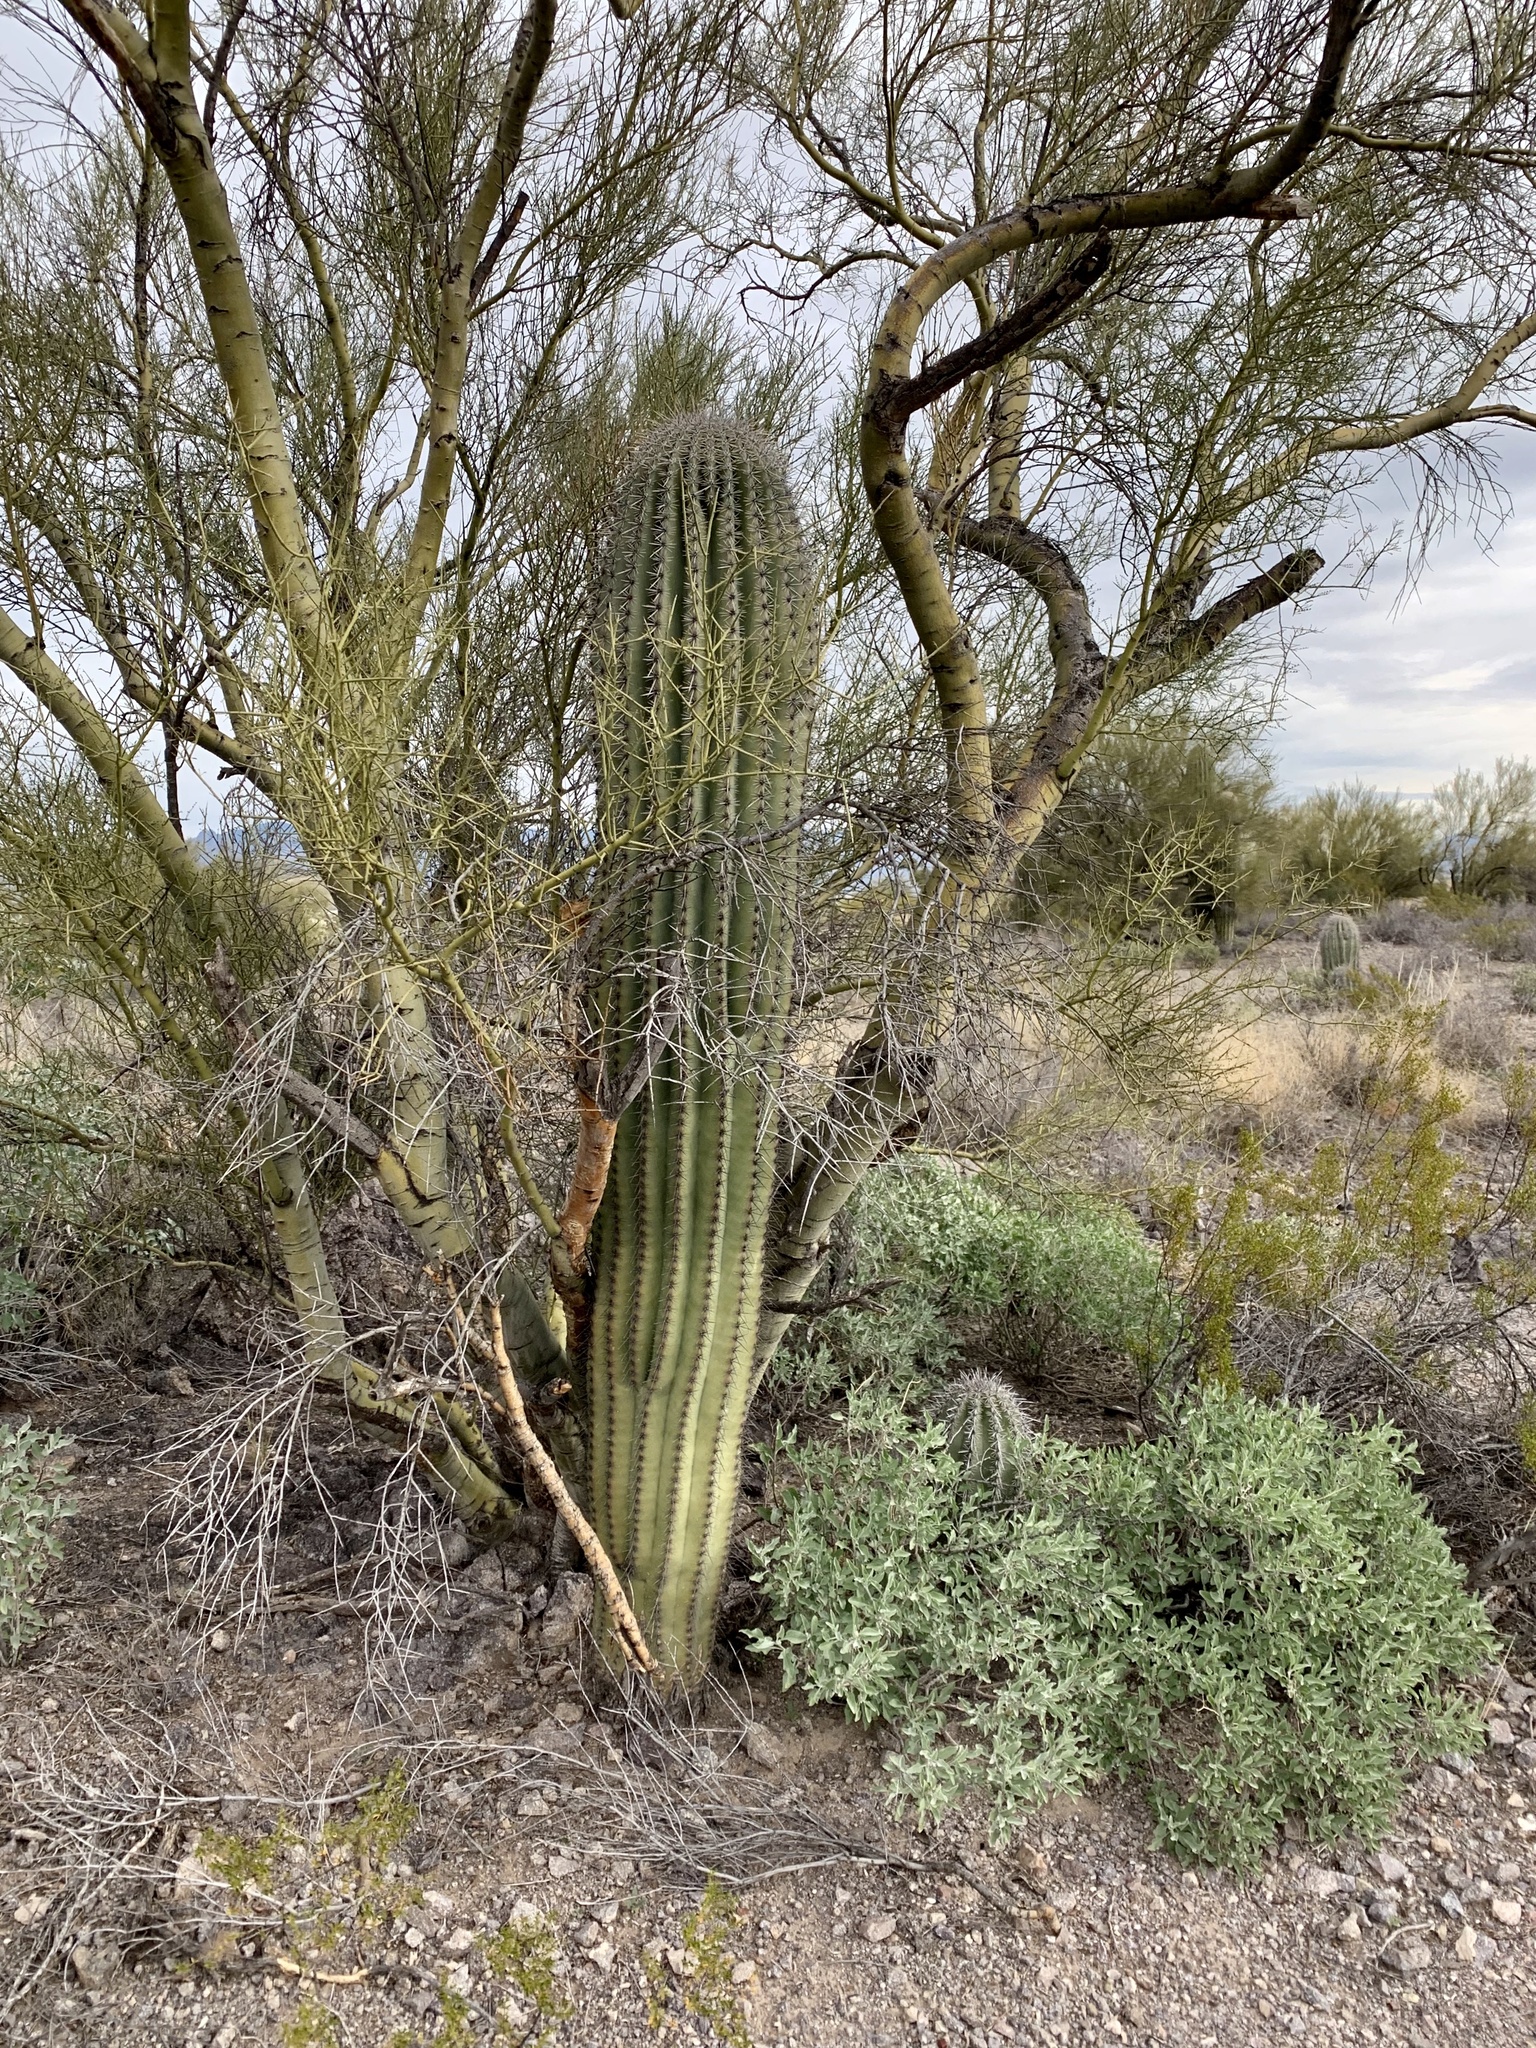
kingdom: Plantae
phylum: Tracheophyta
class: Magnoliopsida
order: Caryophyllales
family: Cactaceae
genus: Carnegiea
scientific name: Carnegiea gigantea
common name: Saguaro
